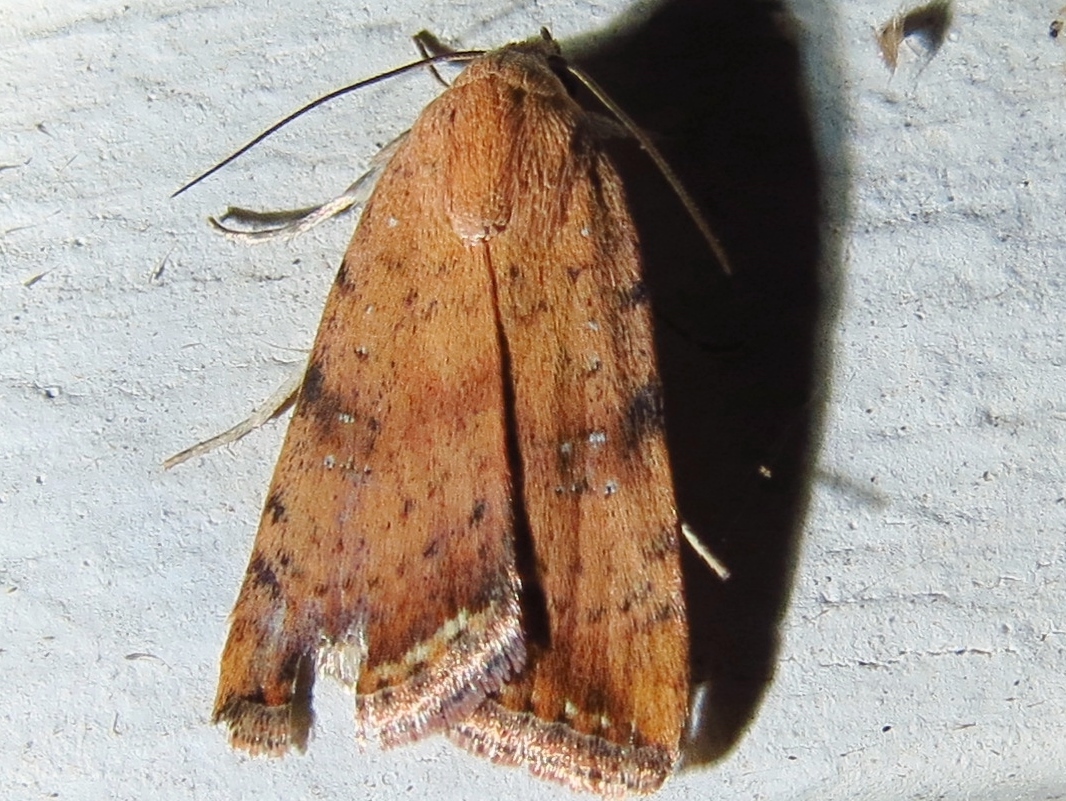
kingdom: Animalia
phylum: Arthropoda
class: Insecta
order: Lepidoptera
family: Noctuidae
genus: Micrathetis
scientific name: Micrathetis triplex
